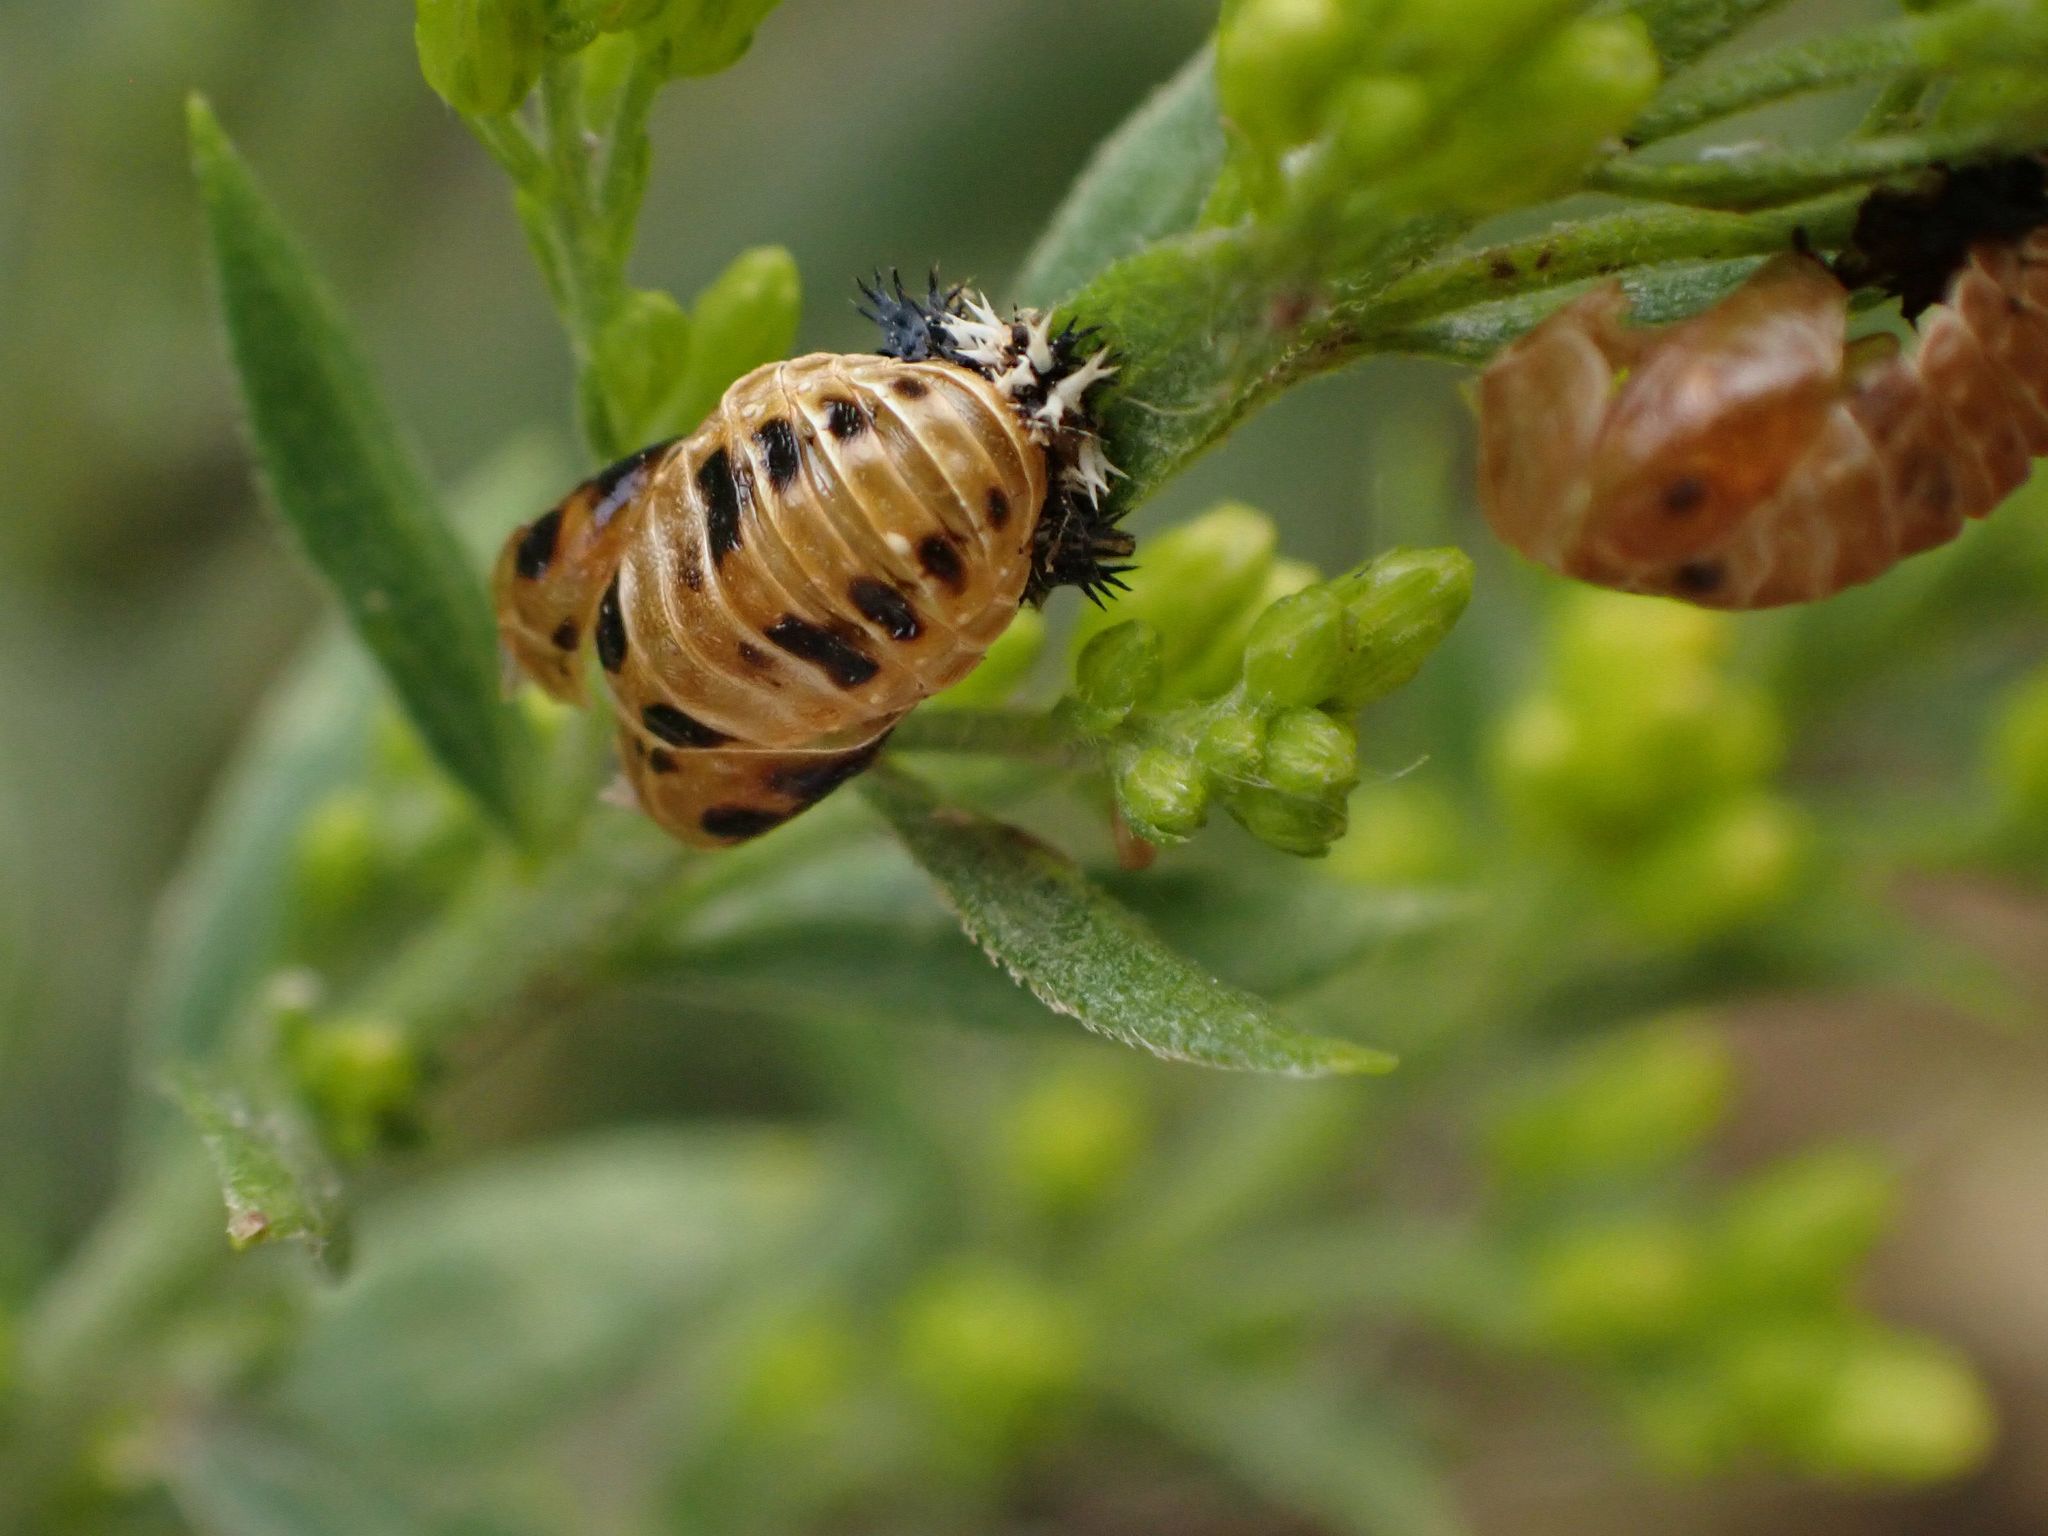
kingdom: Animalia
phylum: Arthropoda
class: Insecta
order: Coleoptera
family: Coccinellidae
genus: Harmonia
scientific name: Harmonia axyridis
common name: Harlequin ladybird
